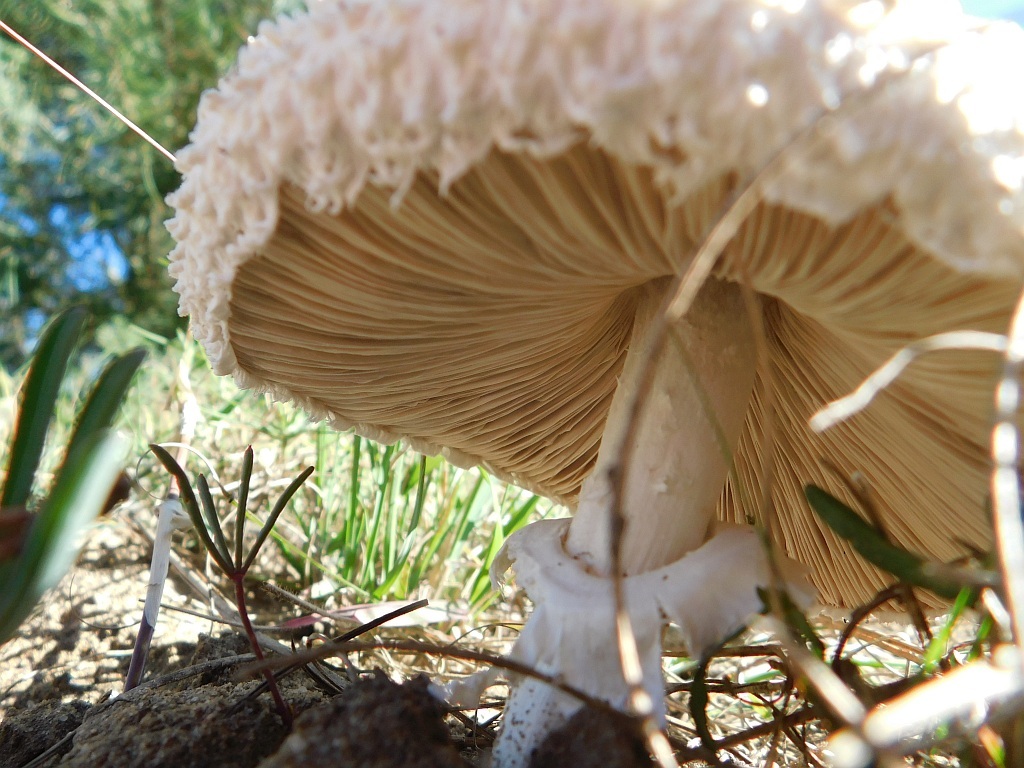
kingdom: Fungi
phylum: Basidiomycota
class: Agaricomycetes
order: Agaricales
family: Agaricaceae
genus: Macrolepiota
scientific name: Macrolepiota zeyheri
